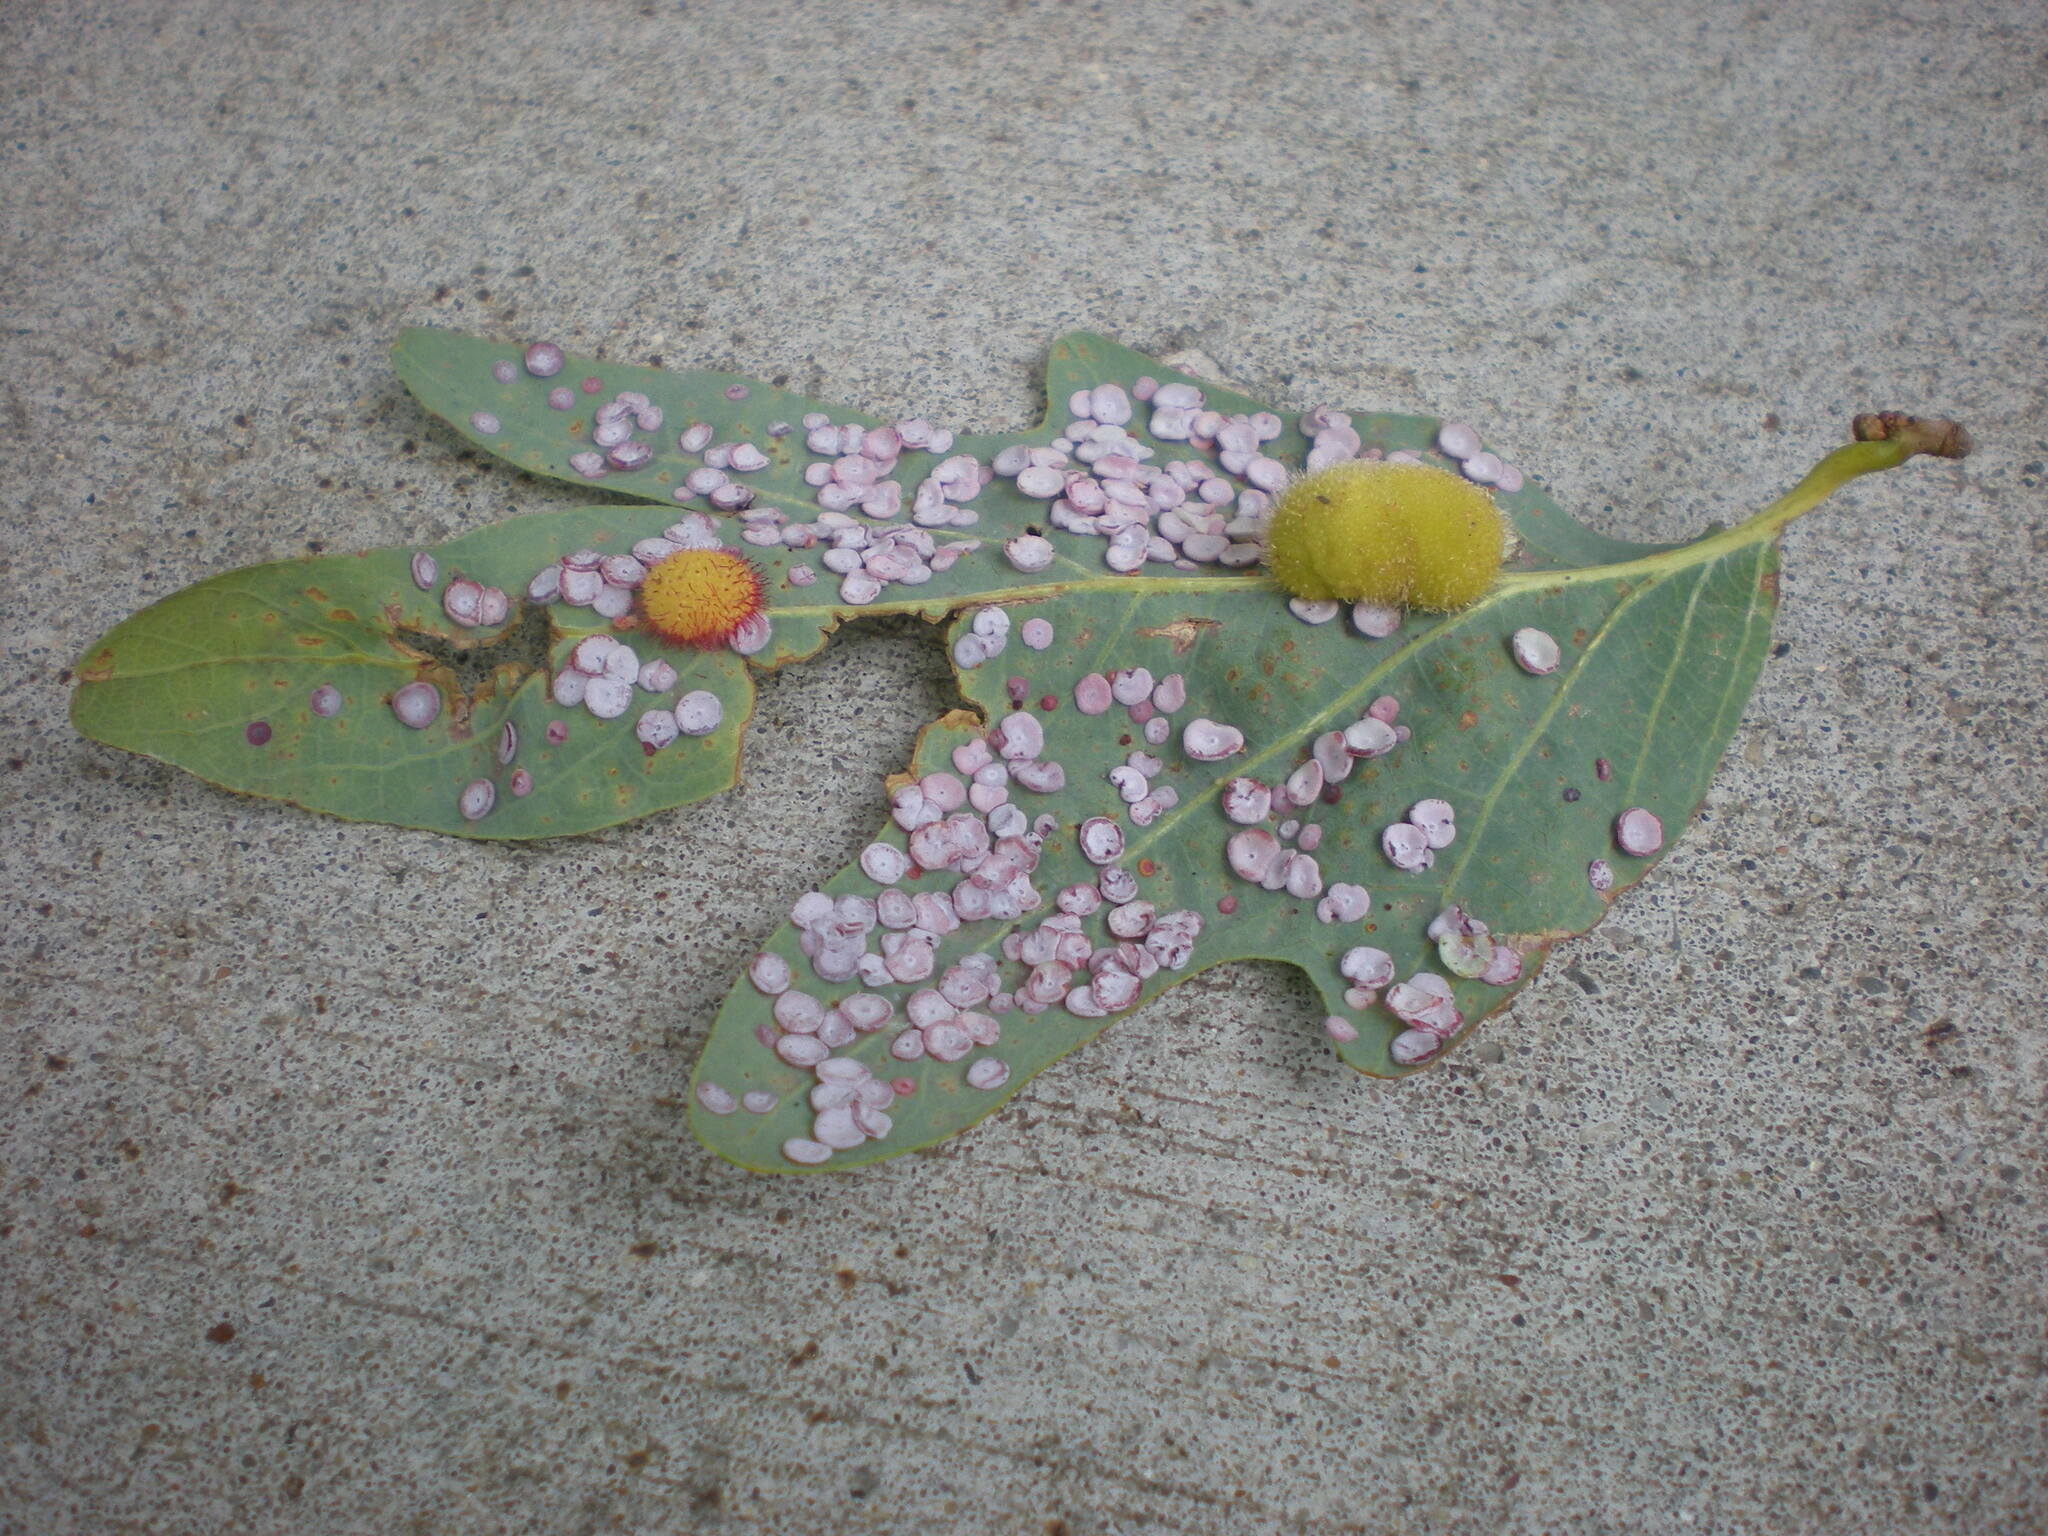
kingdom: Animalia
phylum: Arthropoda
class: Insecta
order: Hymenoptera
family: Cynipidae
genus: Phylloteras
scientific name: Phylloteras poculum
